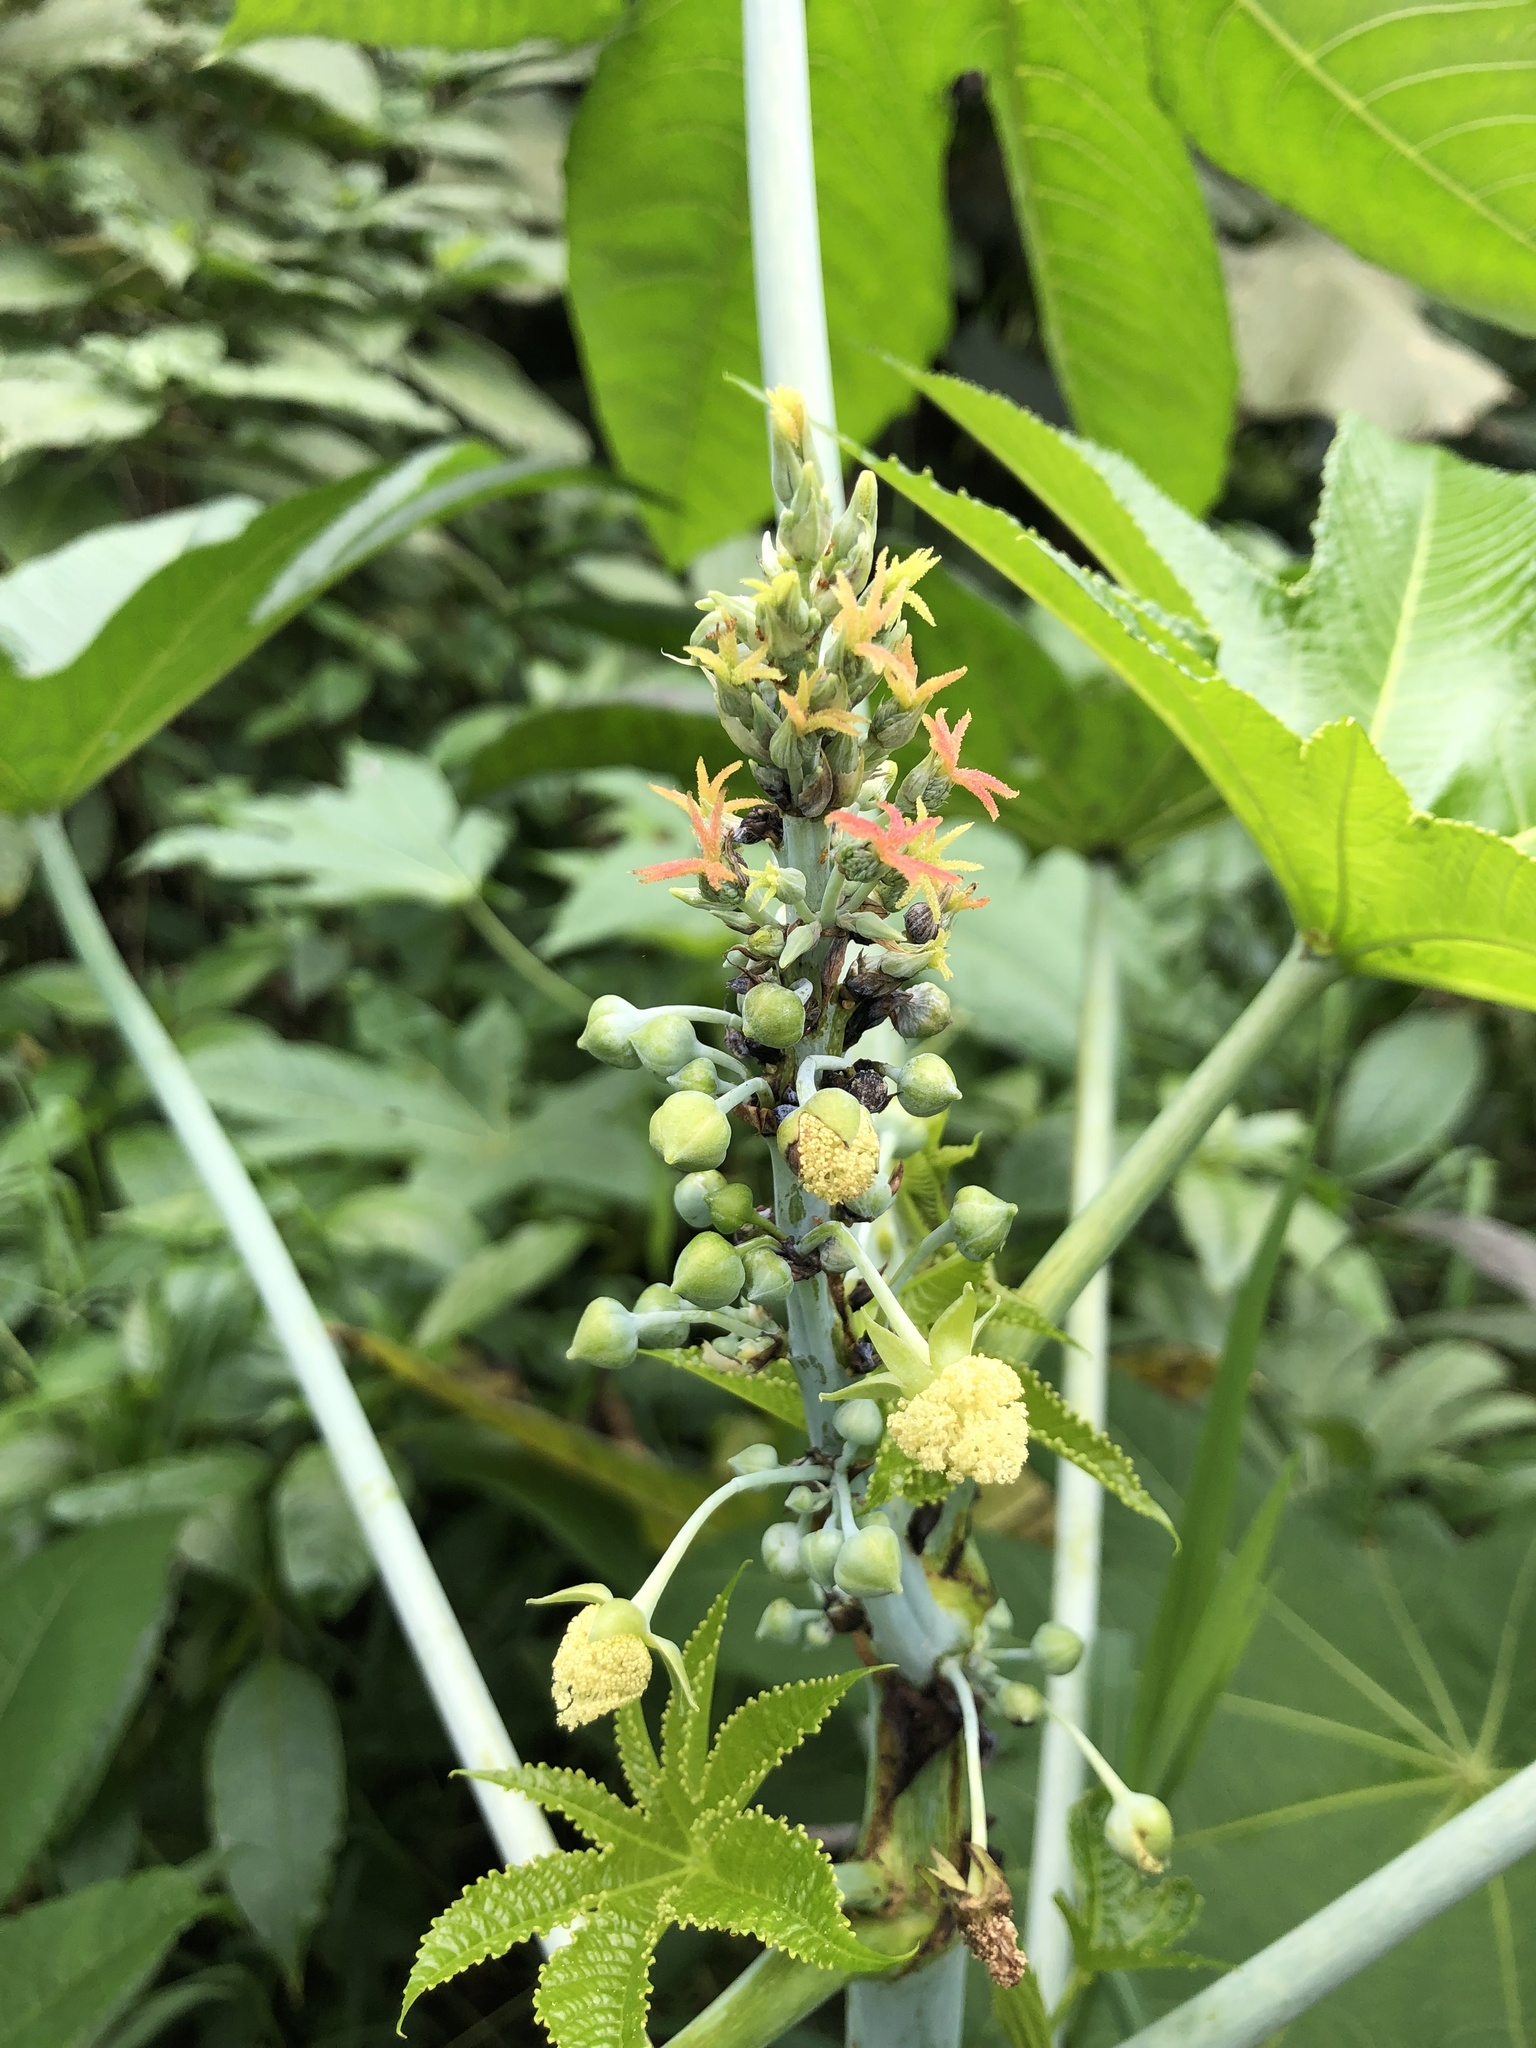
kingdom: Plantae
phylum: Tracheophyta
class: Magnoliopsida
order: Malpighiales
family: Euphorbiaceae
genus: Ricinus
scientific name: Ricinus communis
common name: Castor-oil-plant
